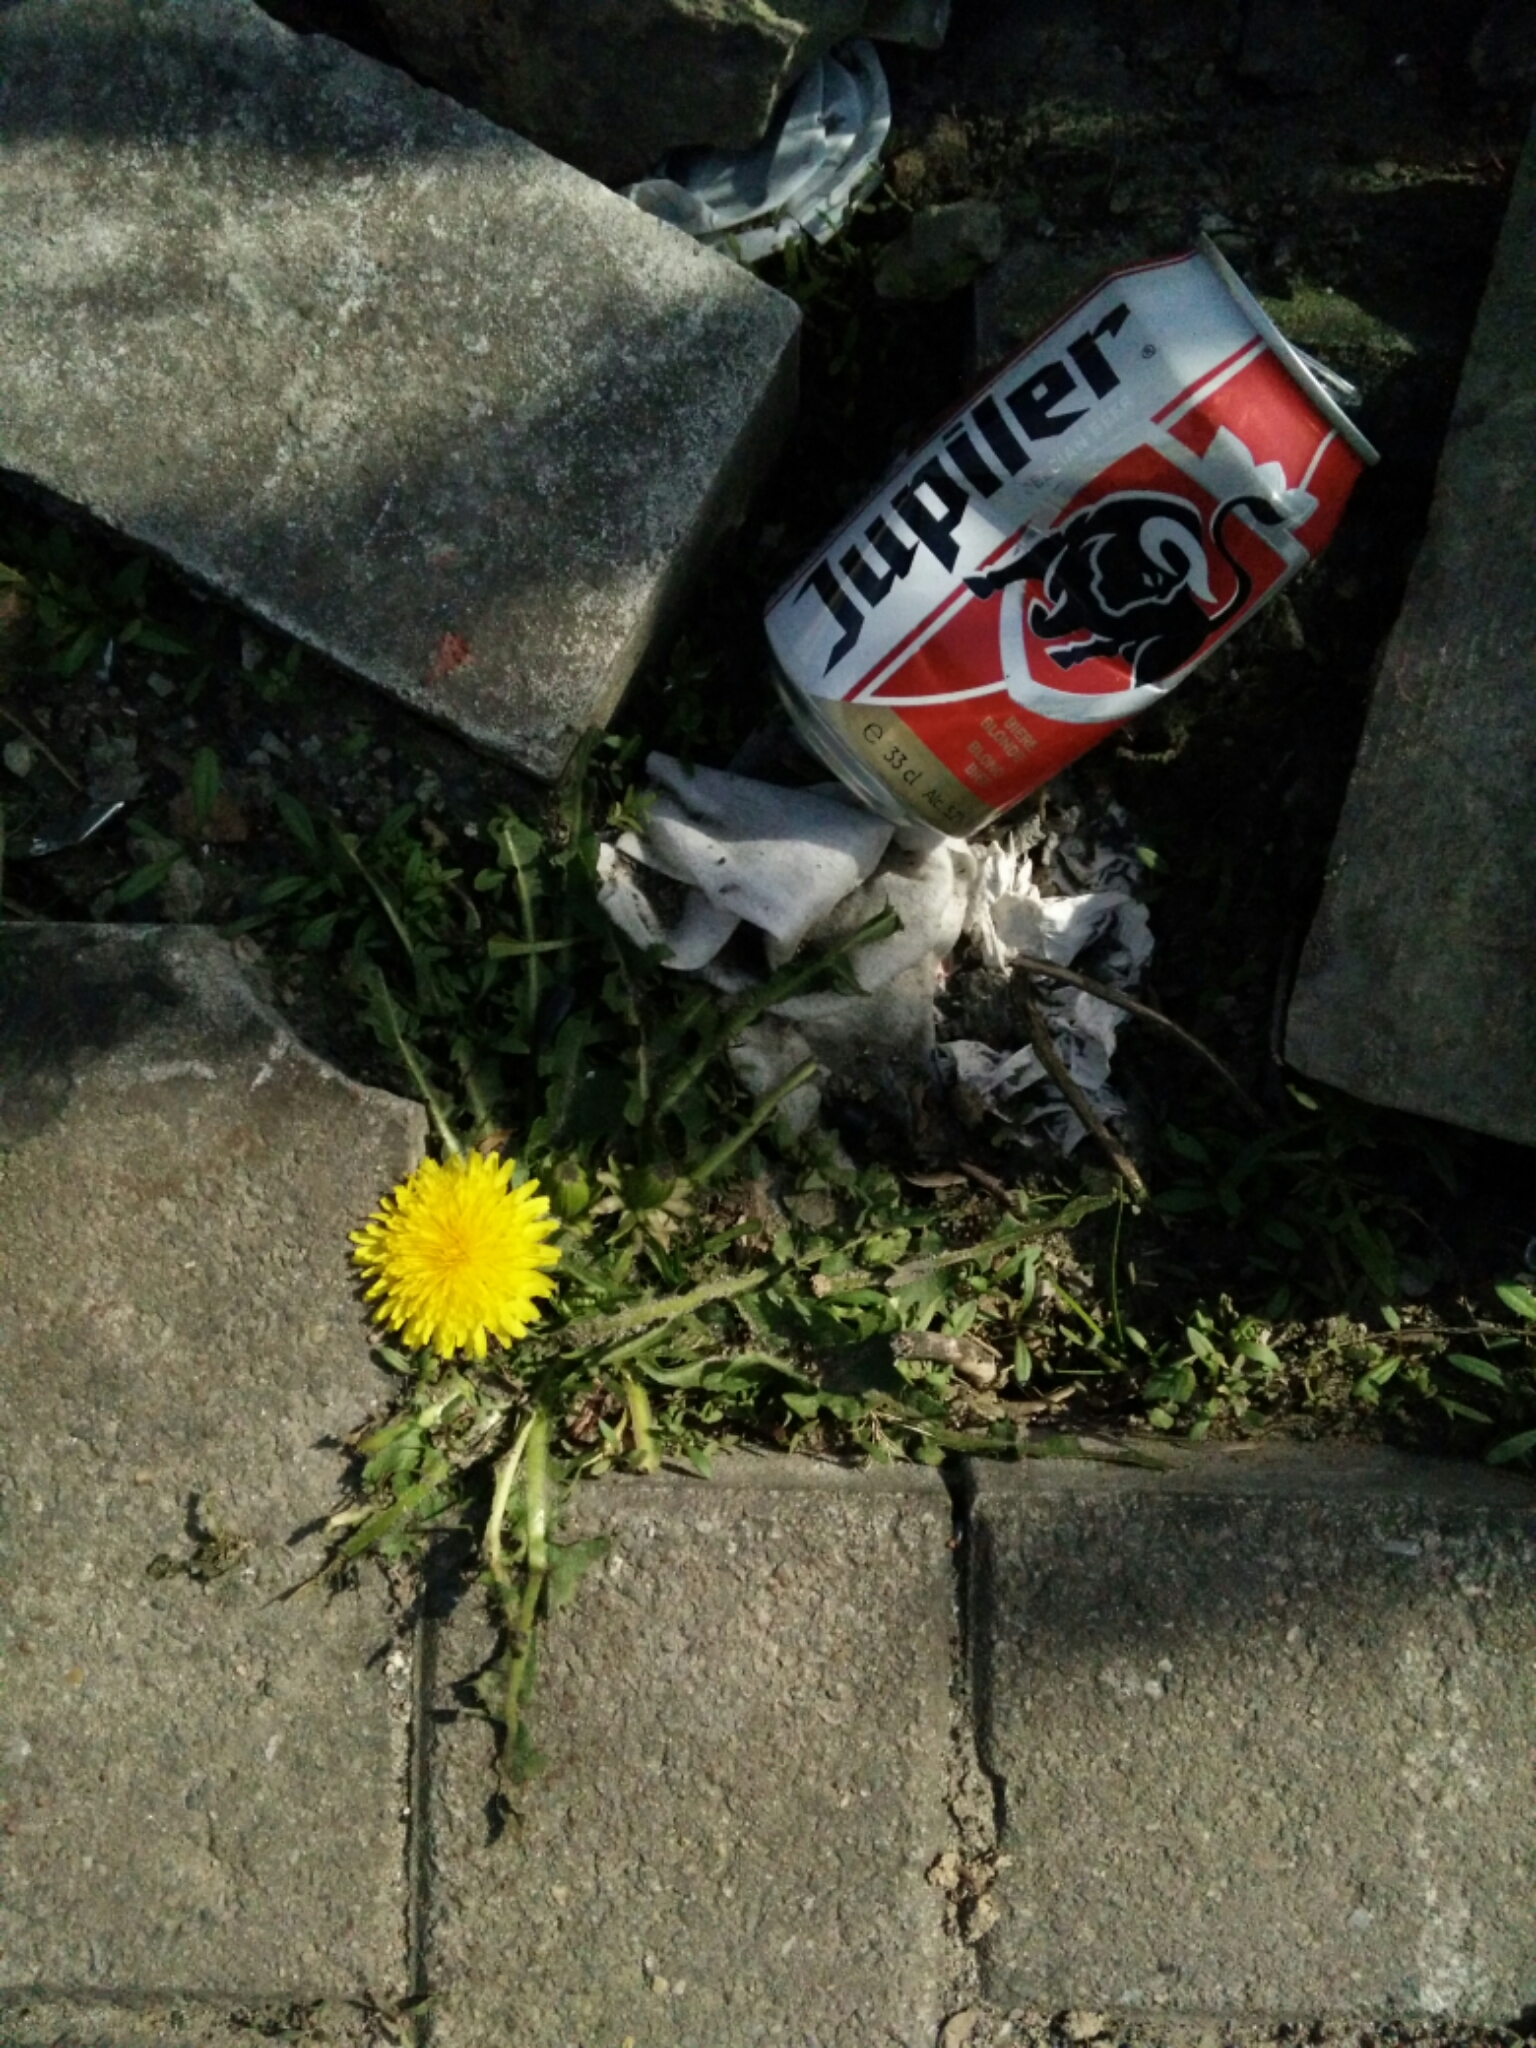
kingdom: Plantae
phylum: Tracheophyta
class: Magnoliopsida
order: Asterales
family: Asteraceae
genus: Taraxacum
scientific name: Taraxacum officinale
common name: Common dandelion
